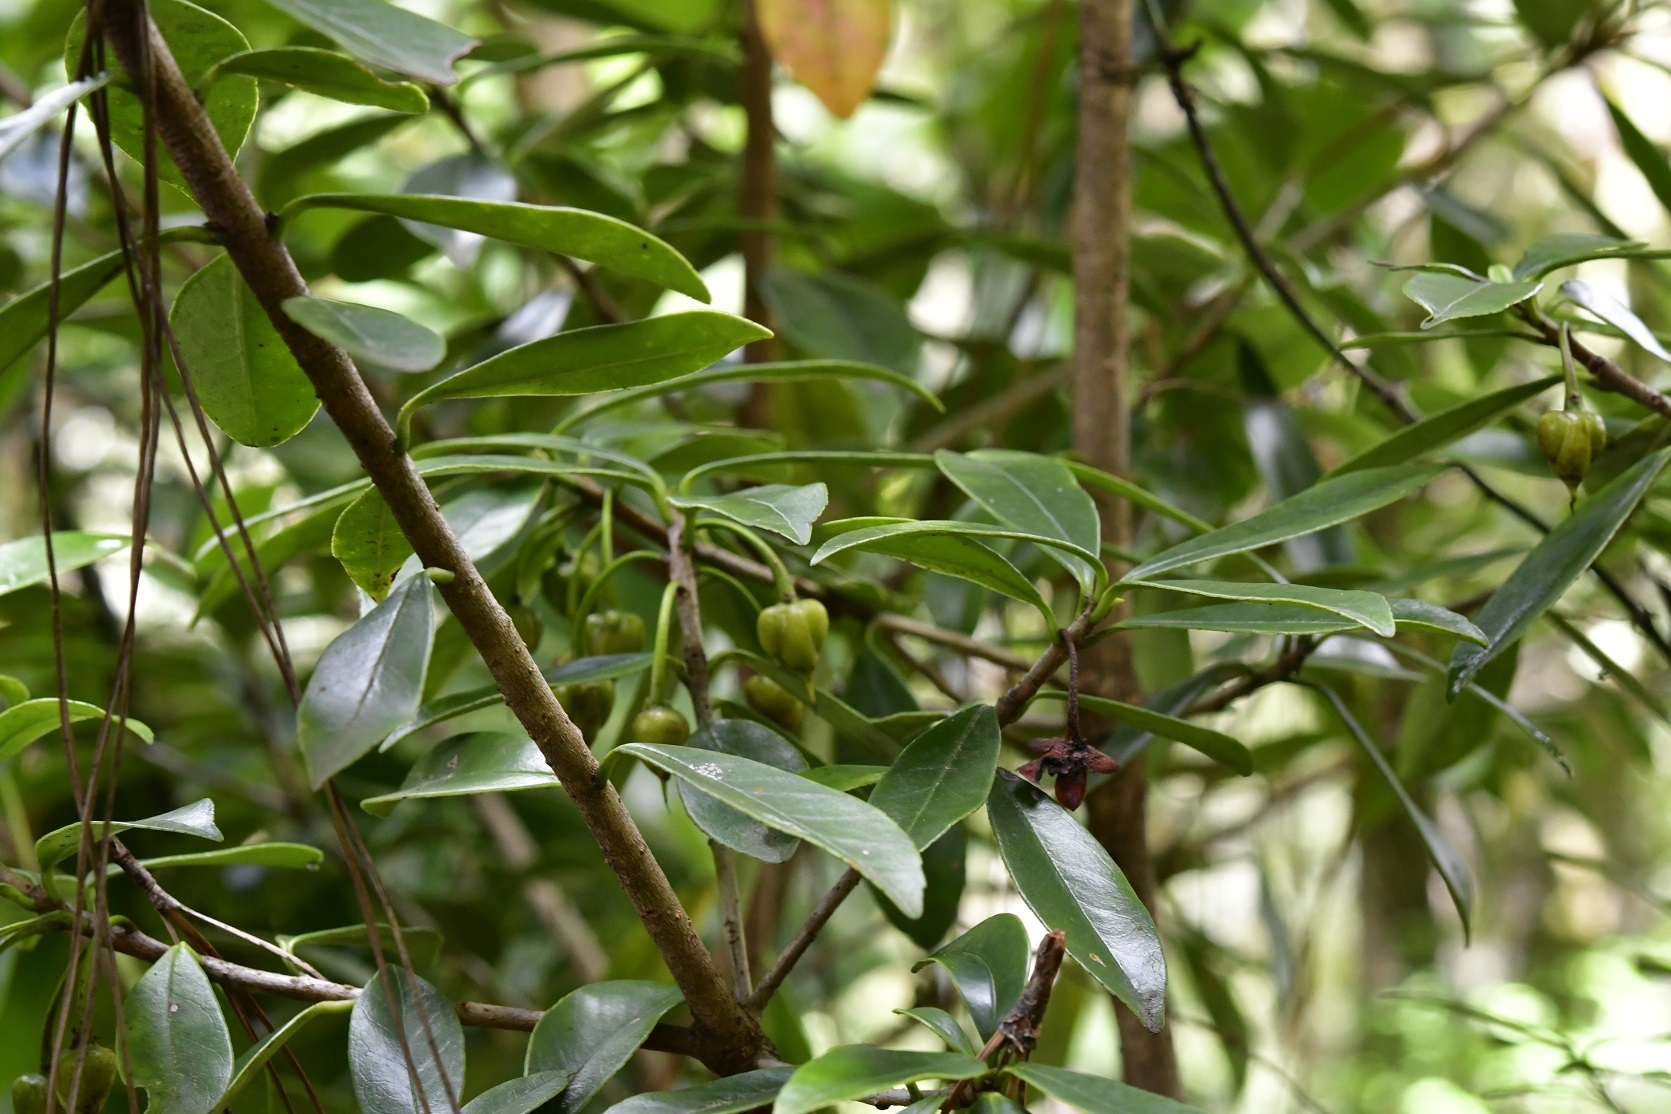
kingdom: Plantae
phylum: Tracheophyta
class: Magnoliopsida
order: Ericales
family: Pentaphylacaceae
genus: Ternstroemia
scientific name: Ternstroemia lineata
